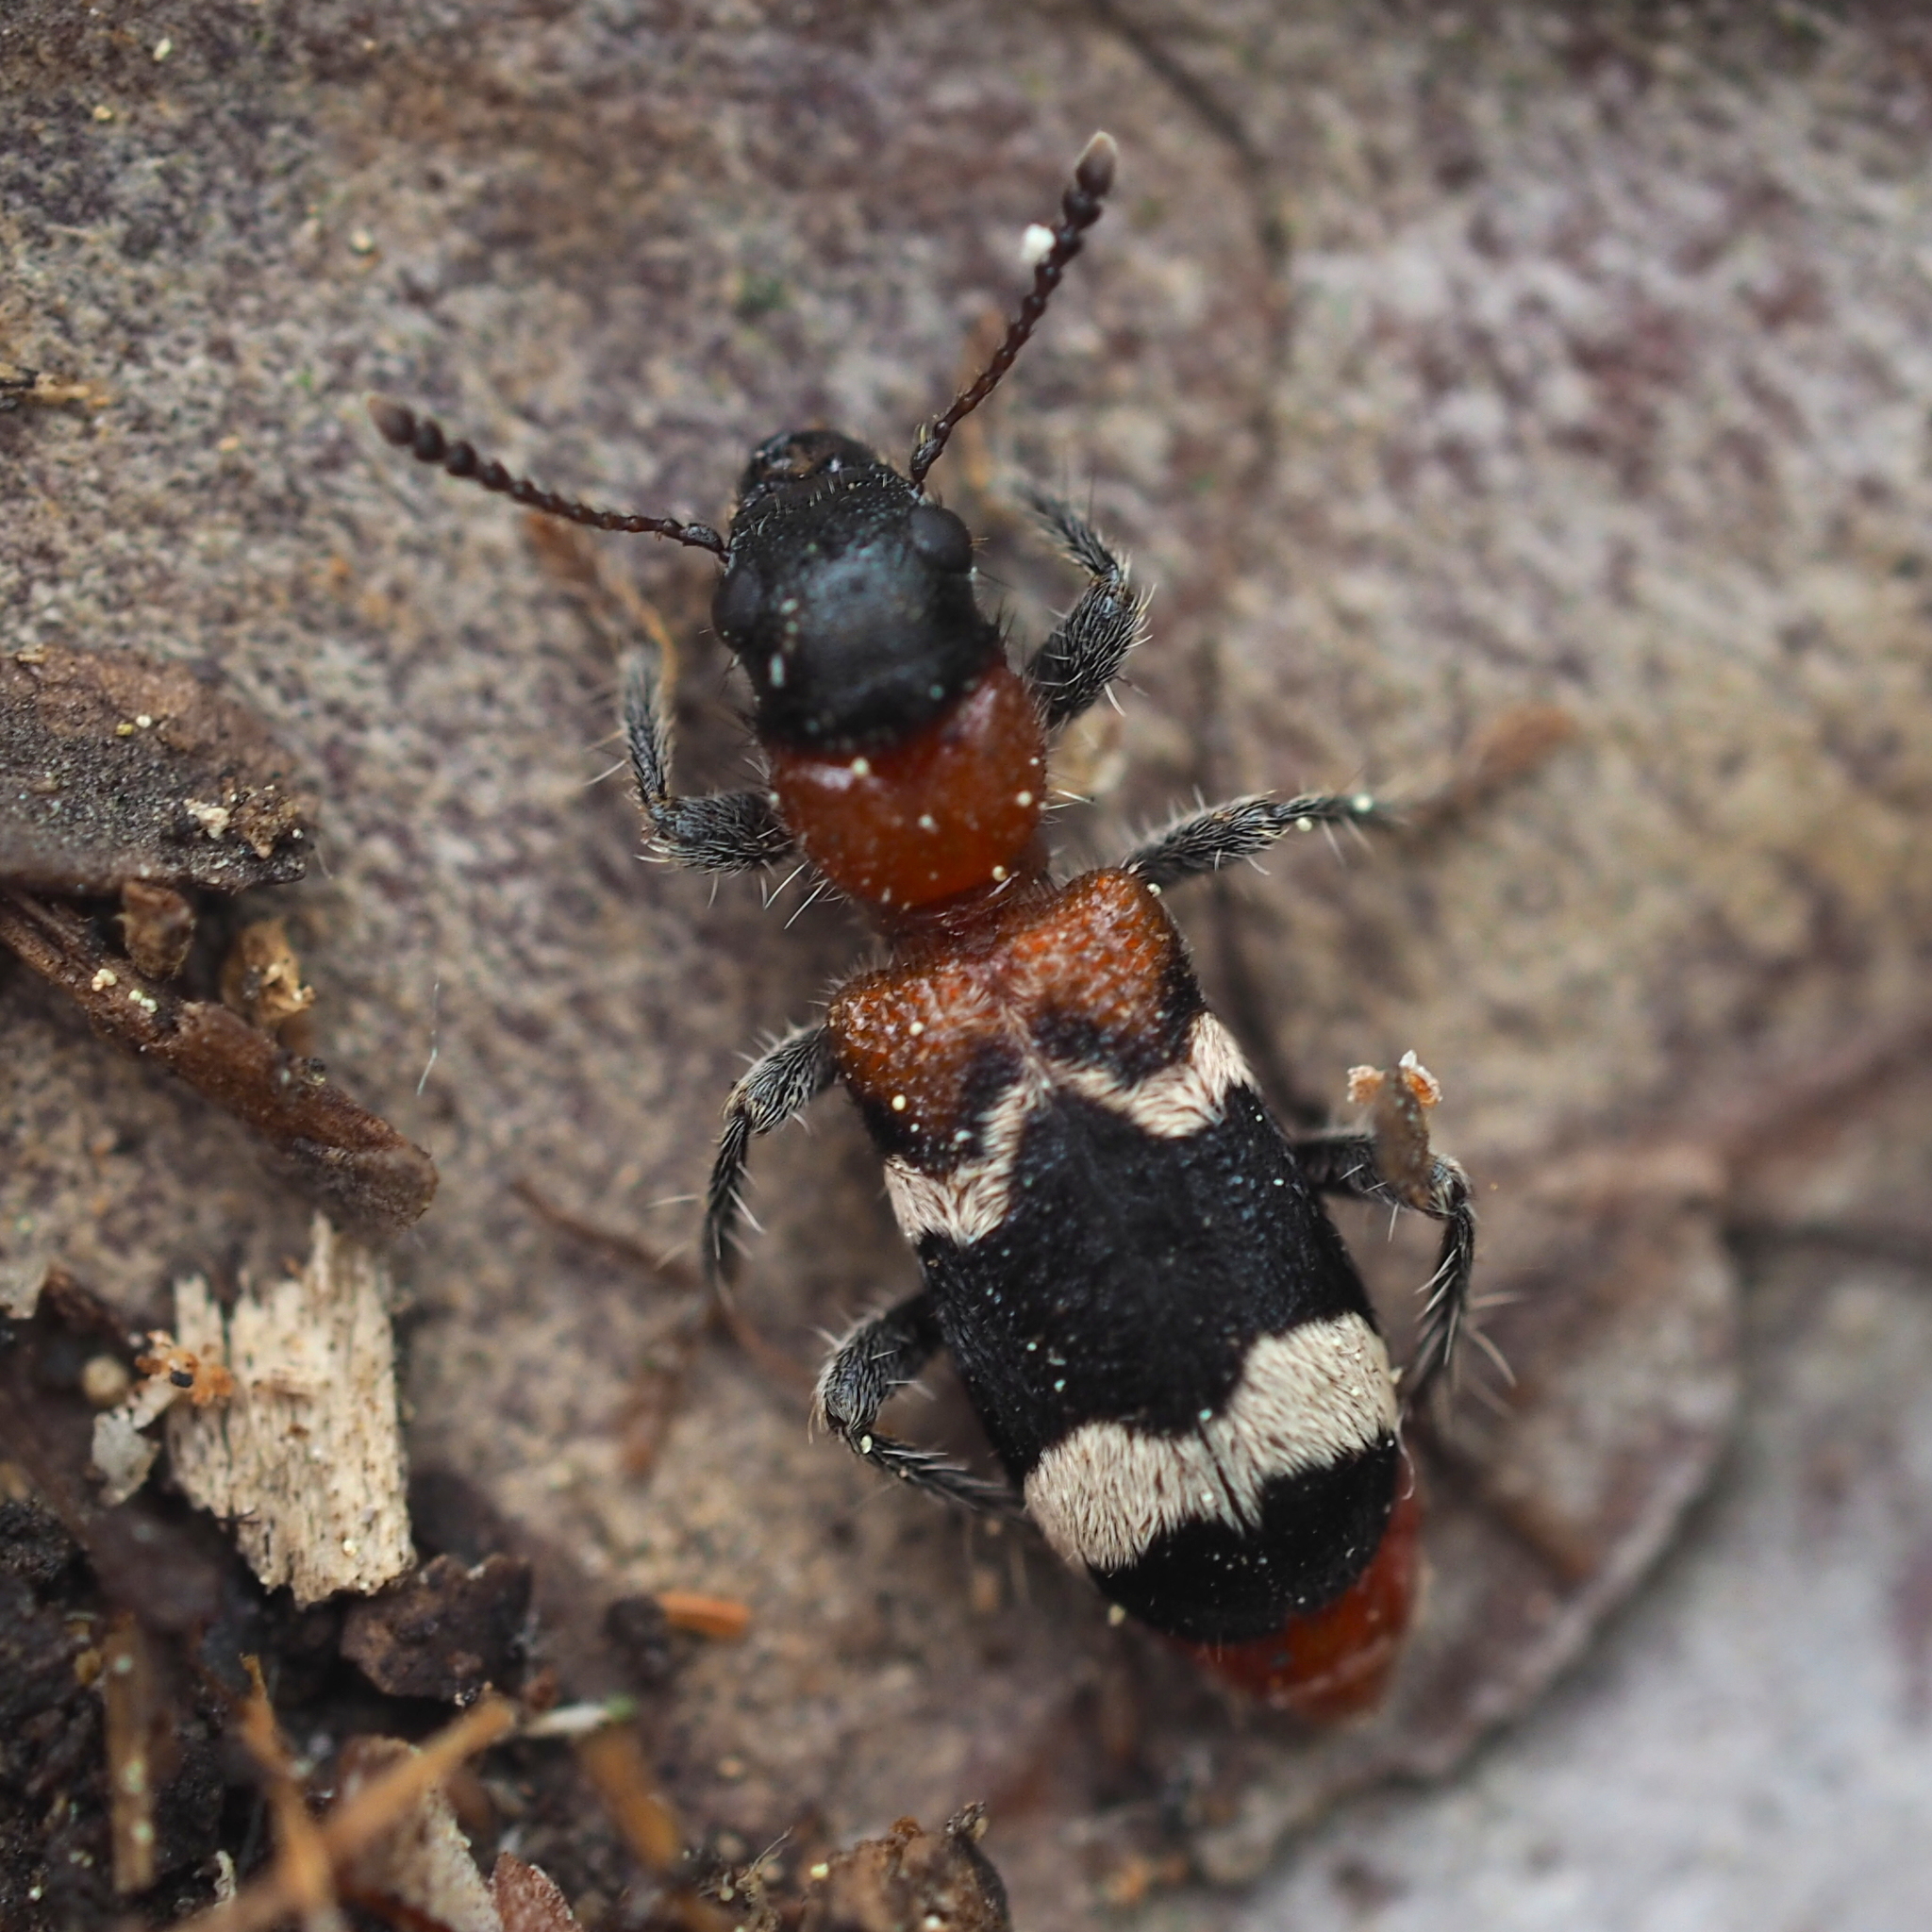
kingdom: Animalia
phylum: Arthropoda
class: Insecta
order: Coleoptera
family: Cleridae
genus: Thanasimus
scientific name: Thanasimus formicarius
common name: Ant beetle
